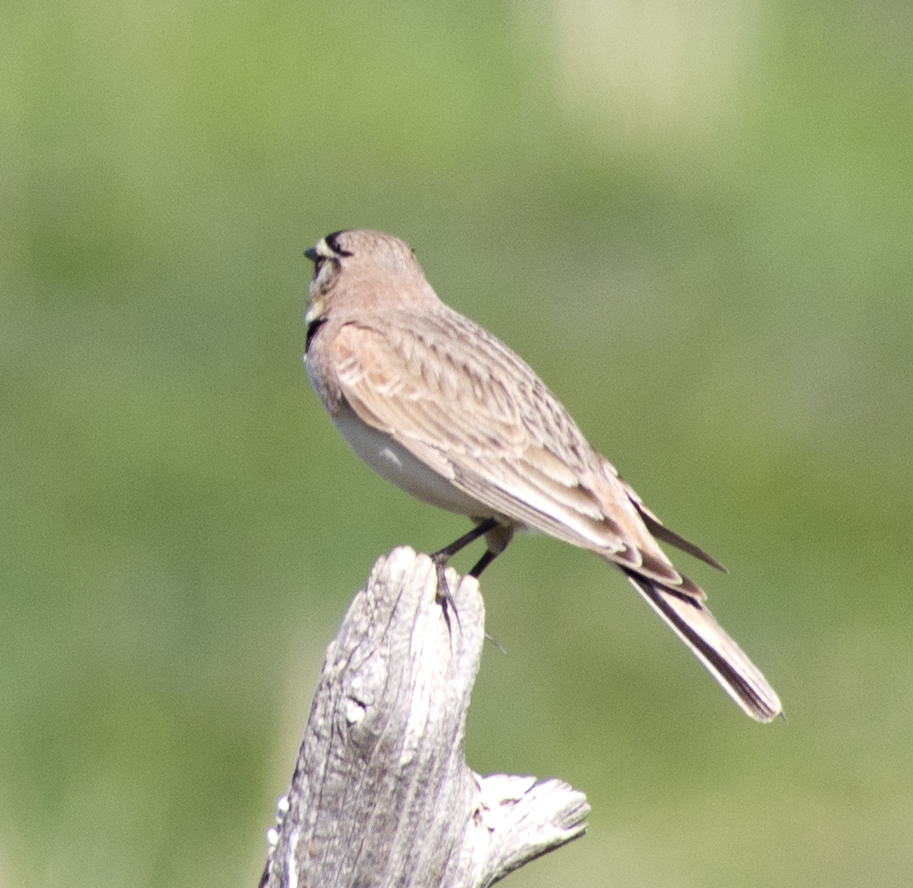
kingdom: Animalia
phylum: Chordata
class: Aves
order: Passeriformes
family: Alaudidae
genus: Eremophila
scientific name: Eremophila alpestris
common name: Horned lark
